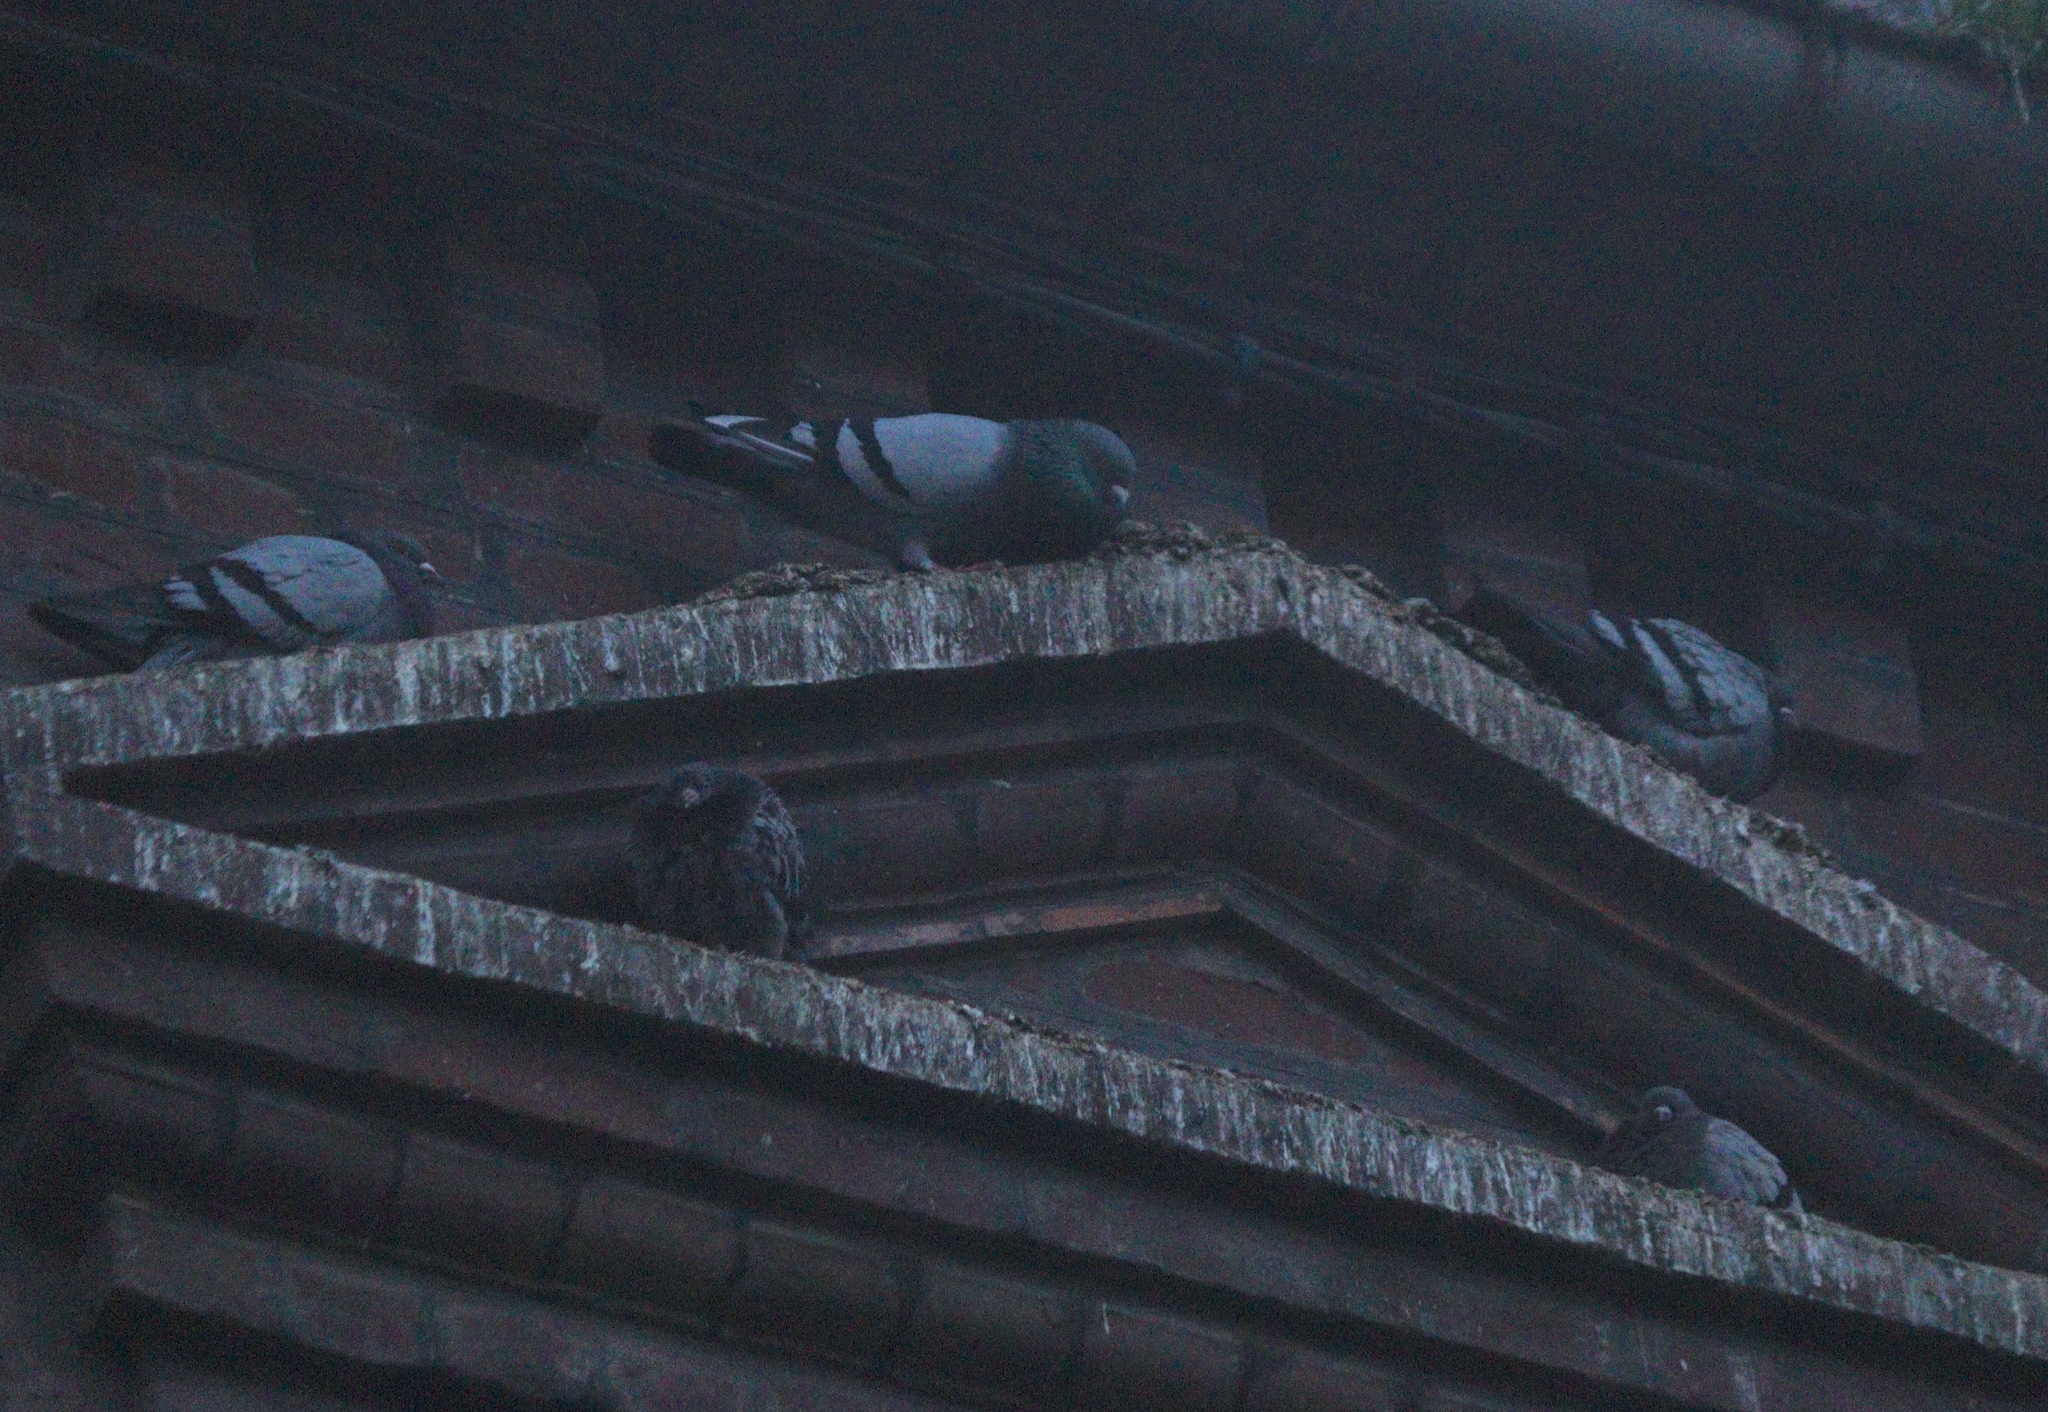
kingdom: Animalia
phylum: Chordata
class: Aves
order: Columbiformes
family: Columbidae
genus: Columba
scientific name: Columba livia
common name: Rock pigeon
